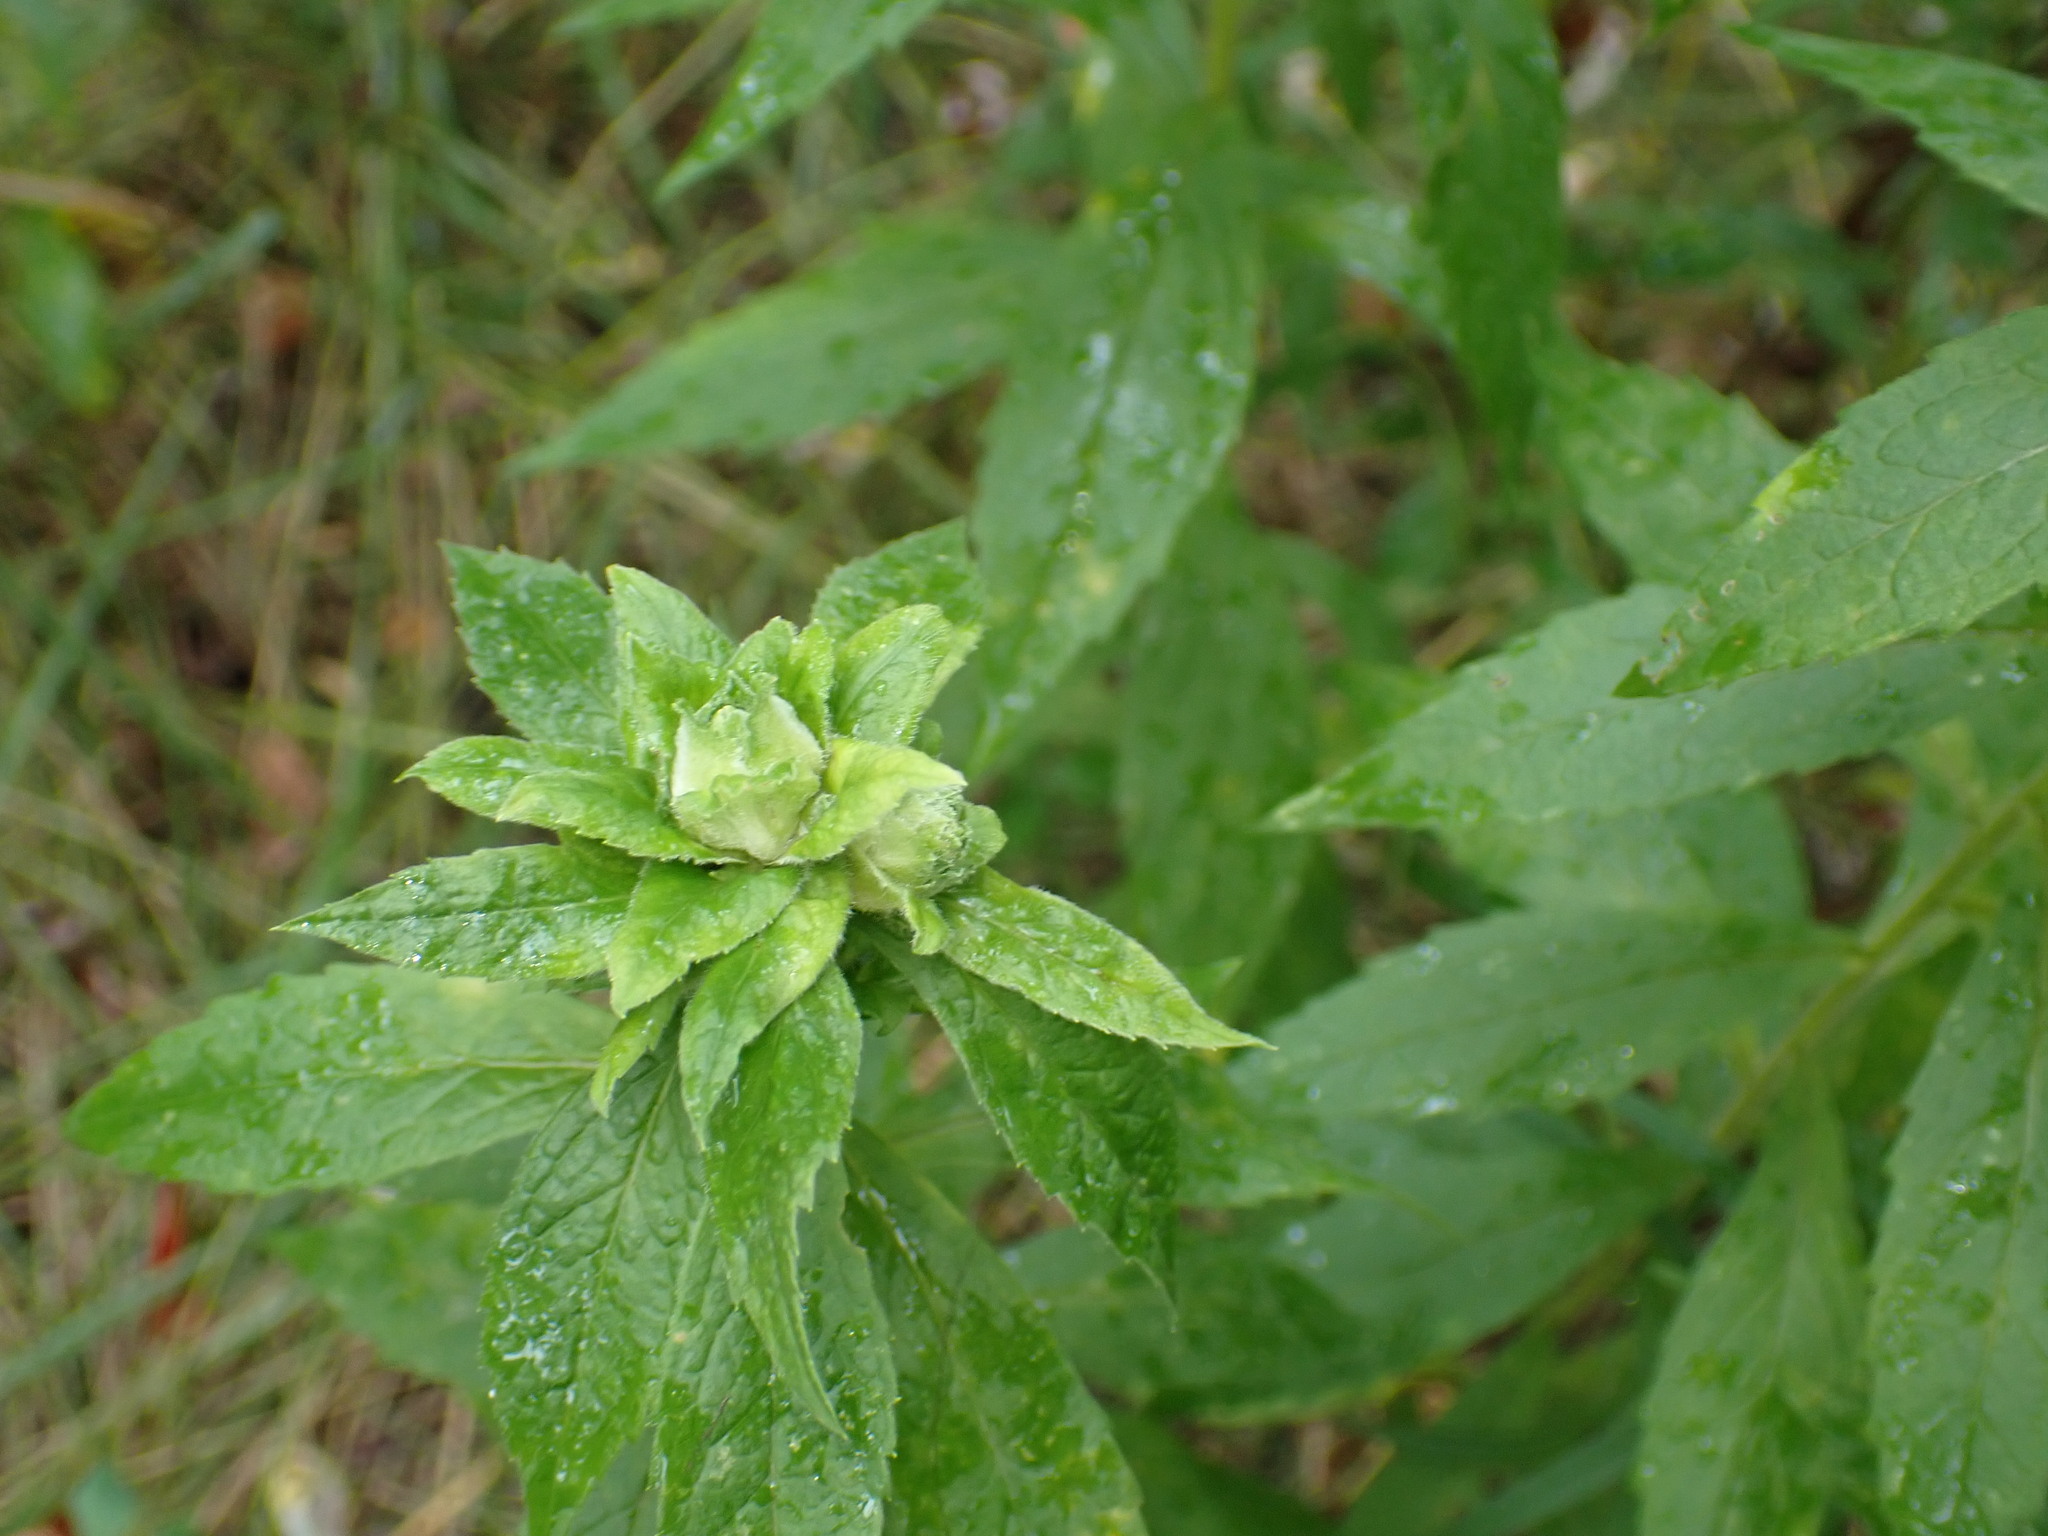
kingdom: Animalia
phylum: Arthropoda
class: Insecta
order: Diptera
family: Tephritidae
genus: Procecidochares
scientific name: Procecidochares atra
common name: Goldenrod brussels sprout gall fly
